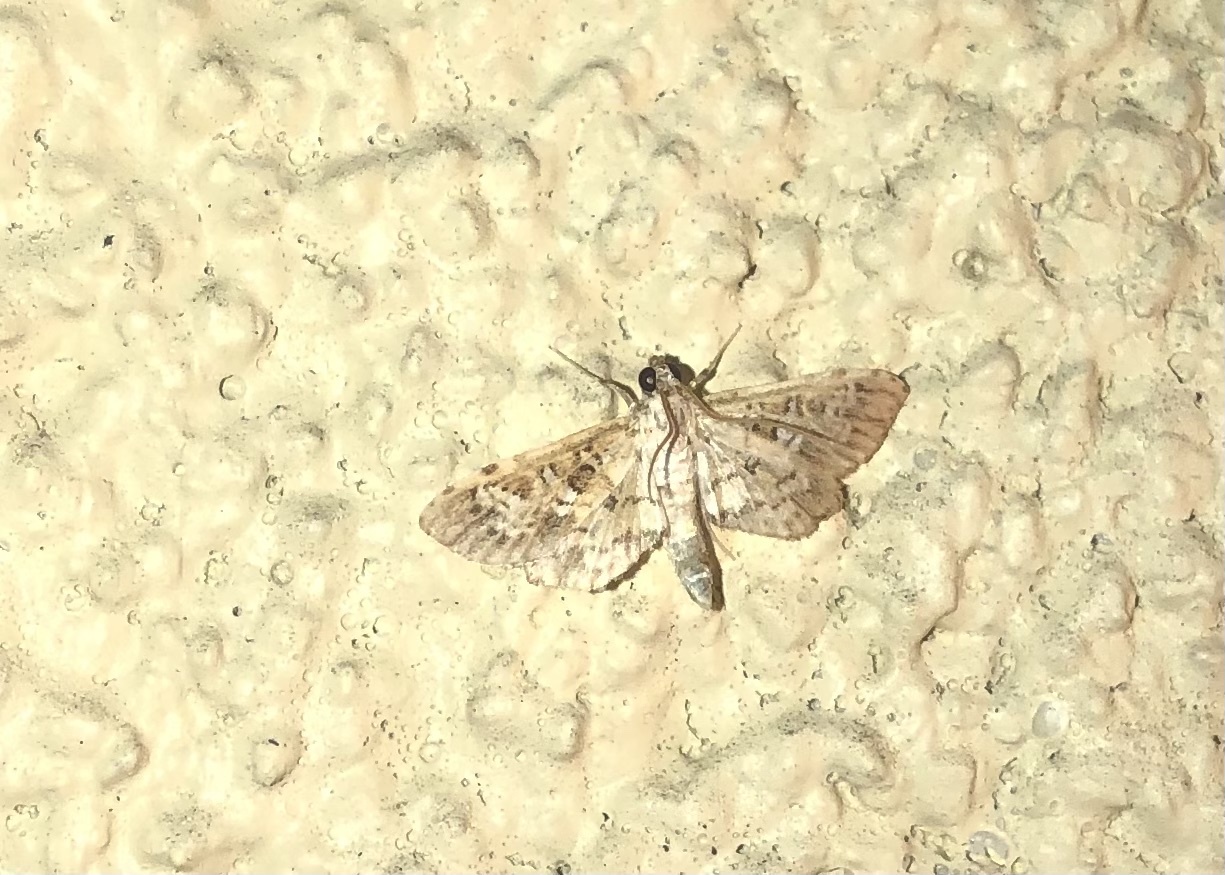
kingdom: Animalia
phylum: Arthropoda
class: Insecta
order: Lepidoptera
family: Crambidae
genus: Samea
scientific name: Samea multiplicalis
